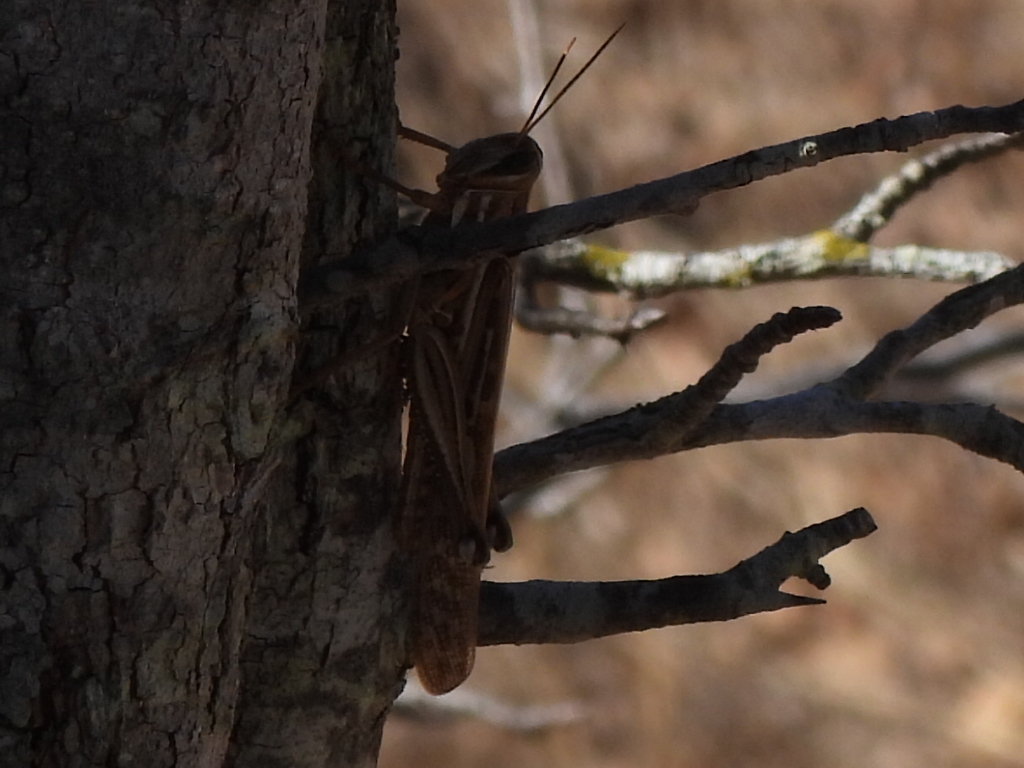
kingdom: Animalia
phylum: Arthropoda
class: Insecta
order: Orthoptera
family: Acrididae
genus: Schistocerca
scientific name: Schistocerca americana
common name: American bird locust
